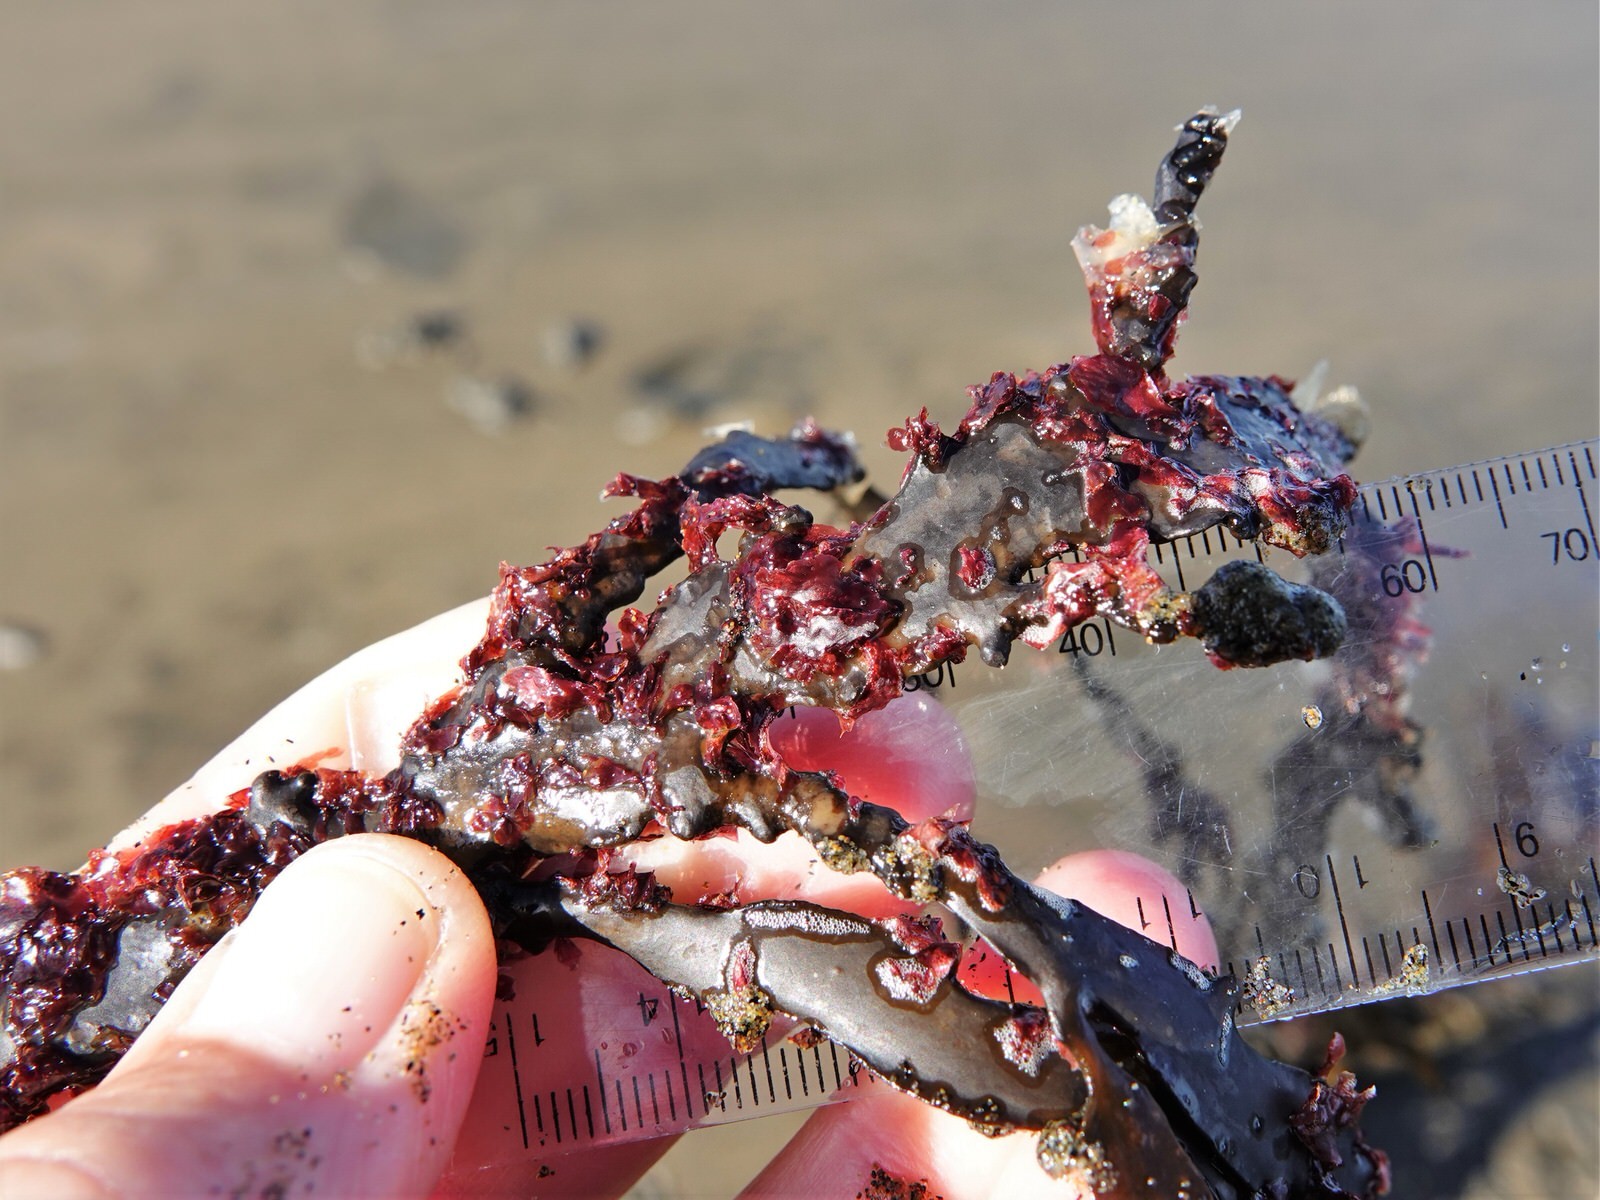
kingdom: Plantae
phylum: Rhodophyta
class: Florideophyceae
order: Ceramiales
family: Delesseriaceae
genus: Nancythalia
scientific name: Nancythalia humilis
